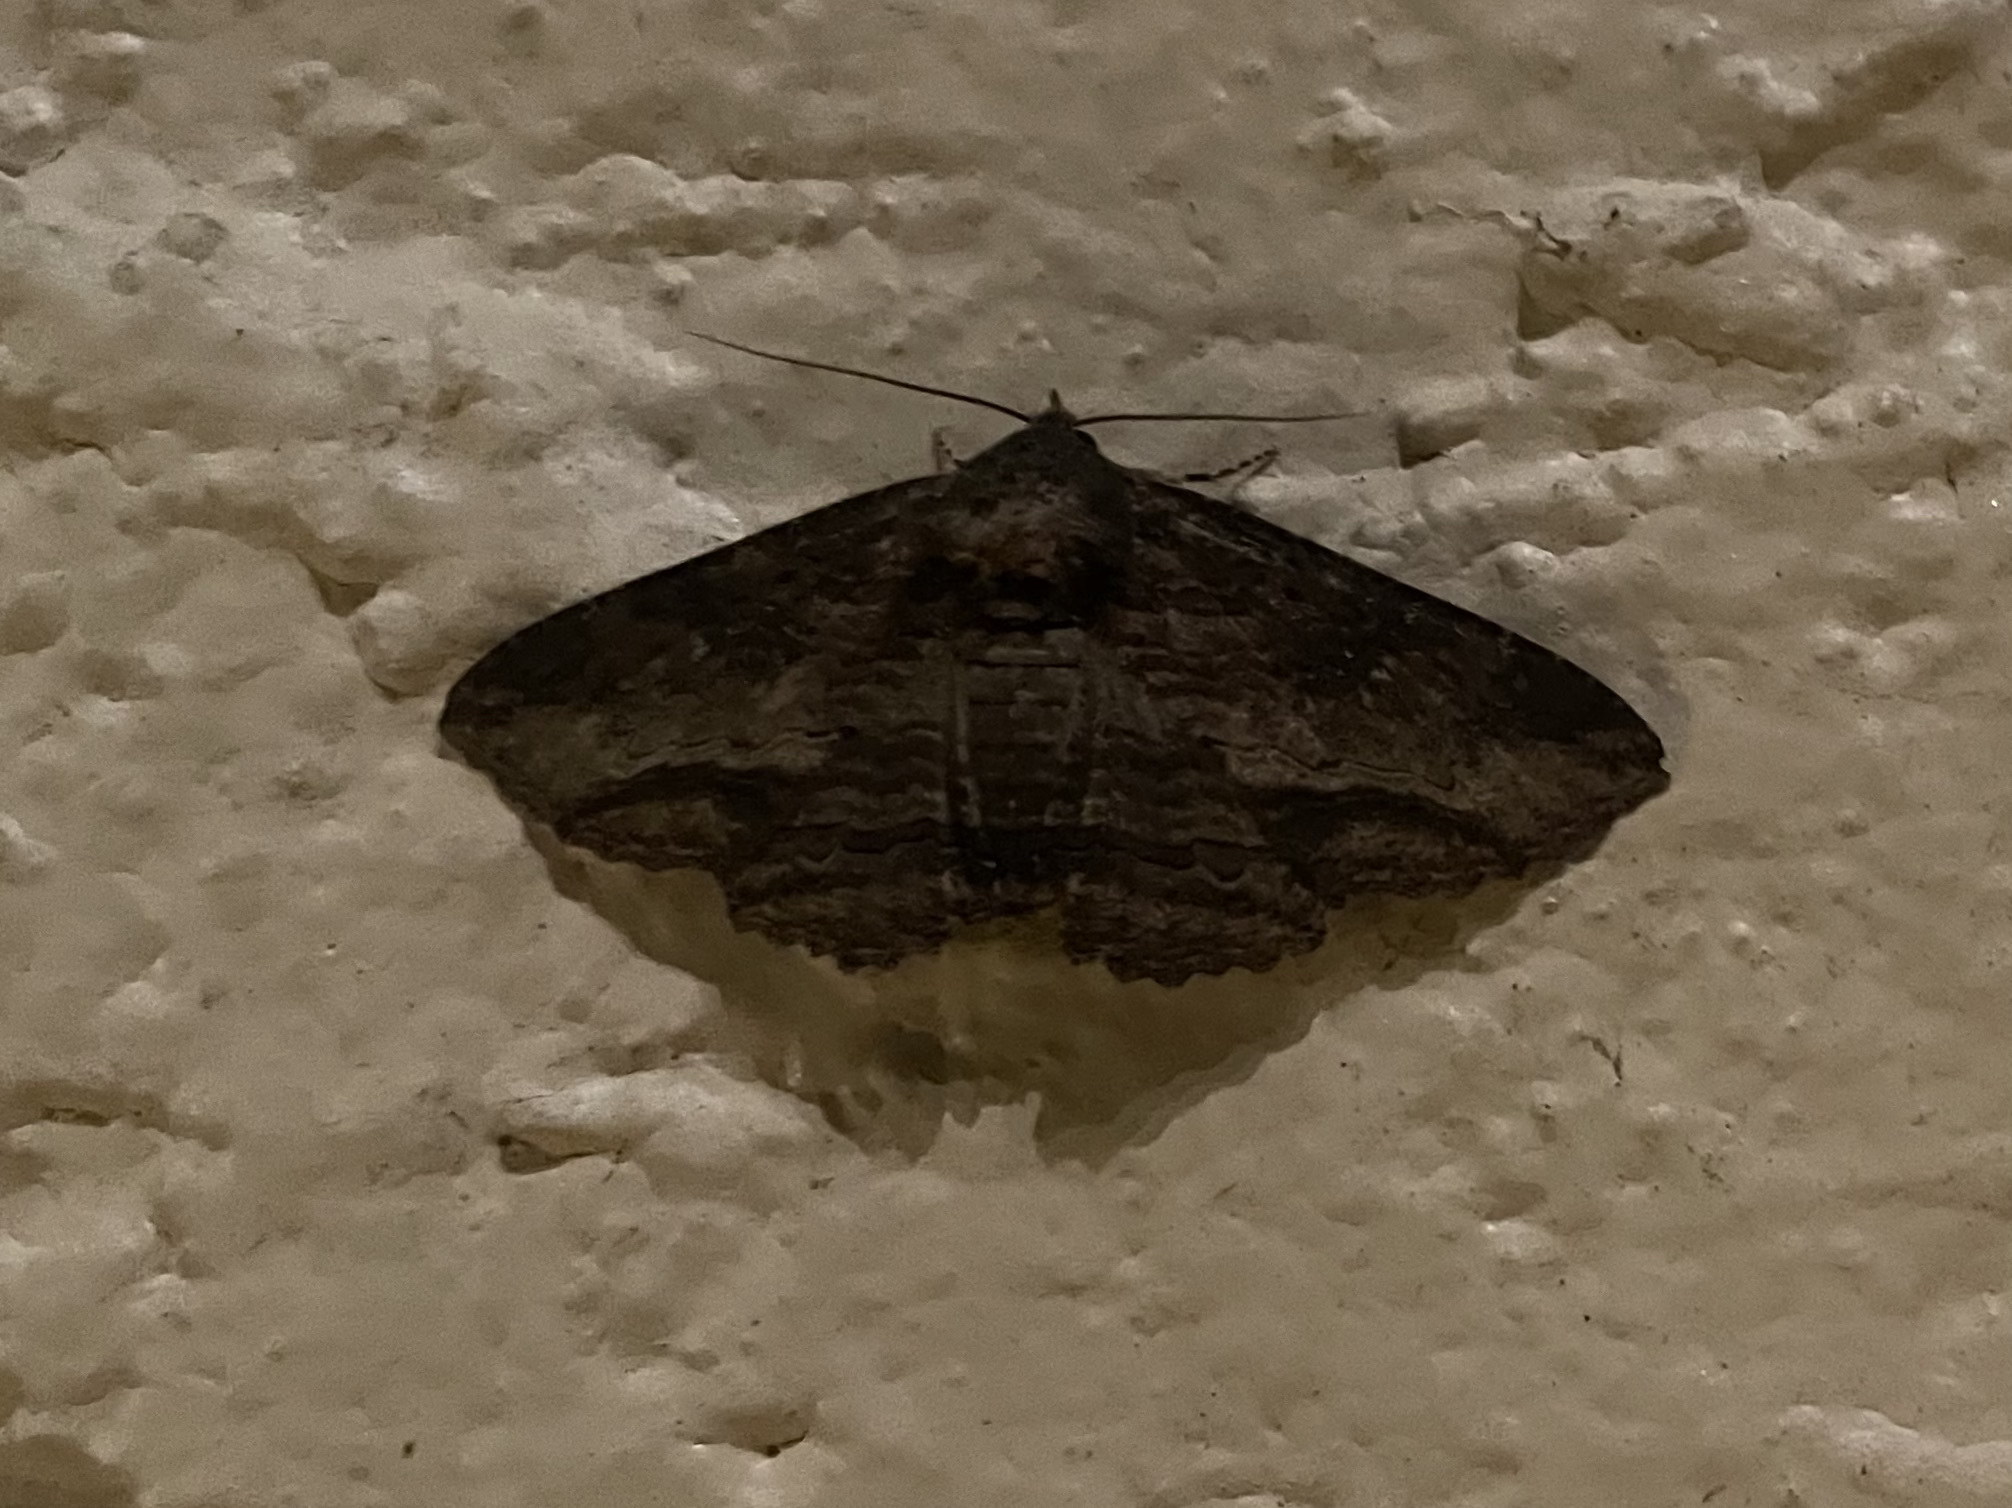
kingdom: Animalia
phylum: Arthropoda
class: Insecta
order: Lepidoptera
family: Erebidae
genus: Zale
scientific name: Zale lunata
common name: Lunate zale moth
